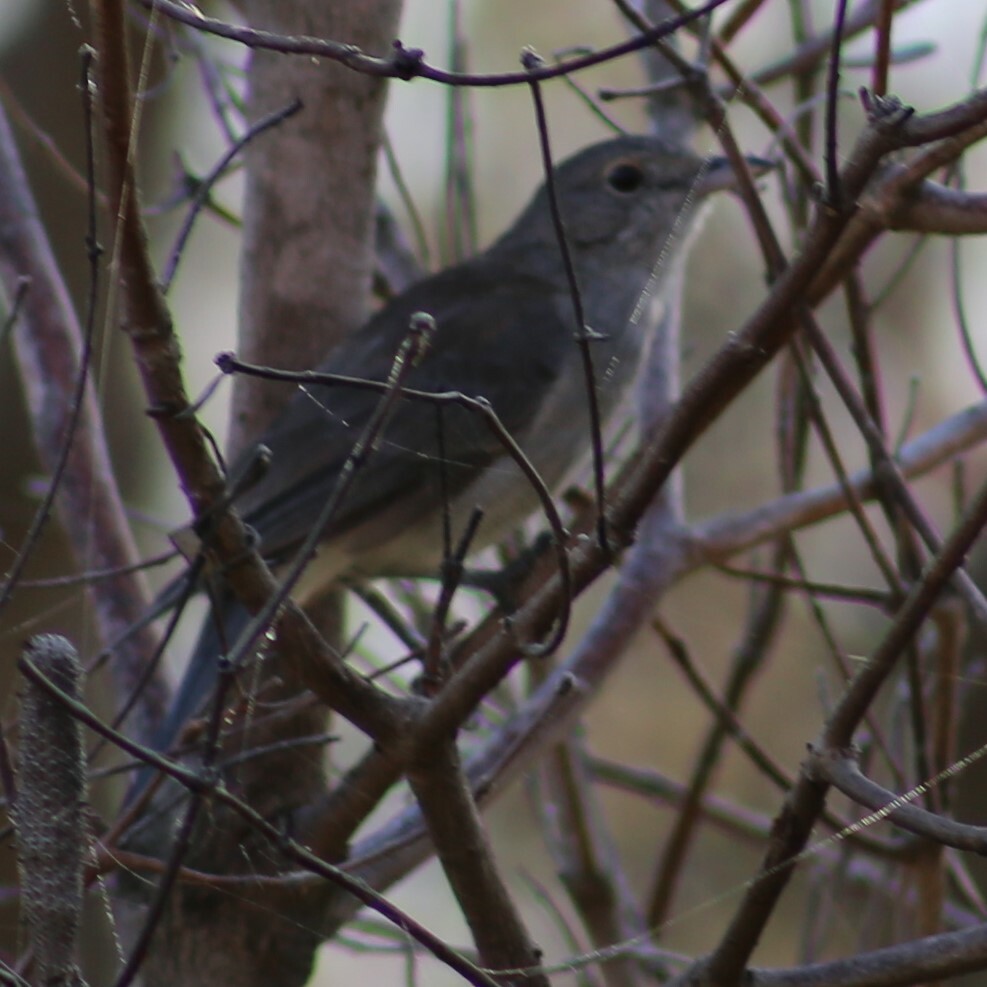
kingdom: Animalia
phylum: Chordata
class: Aves
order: Passeriformes
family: Pachycephalidae
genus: Colluricincla
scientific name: Colluricincla harmonica
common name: Grey shrikethrush
